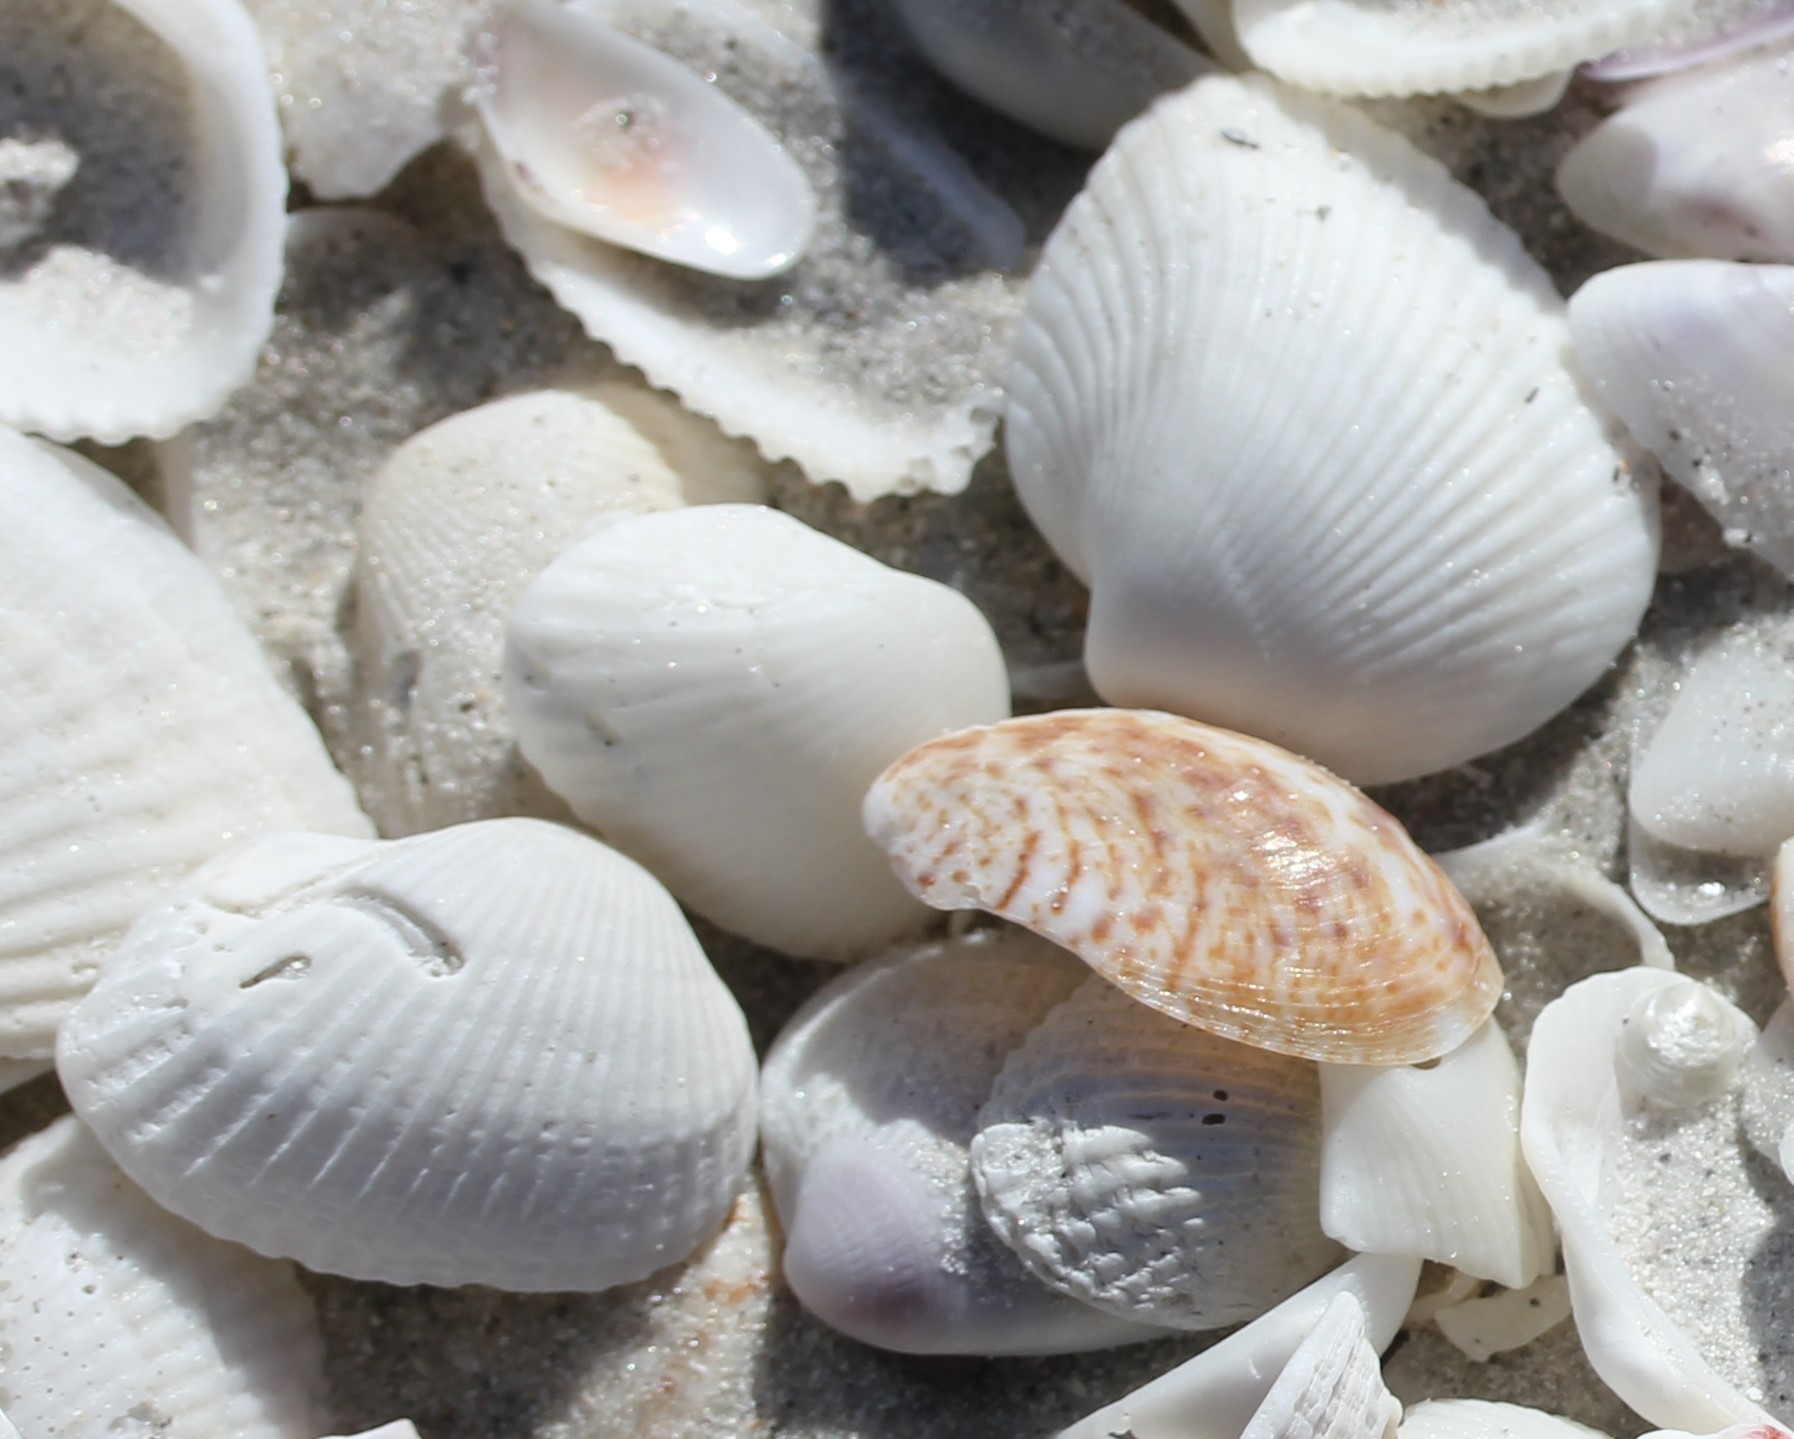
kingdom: Animalia
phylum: Mollusca
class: Bivalvia
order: Arcida
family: Arcidae
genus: Anadara
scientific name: Anadara transversa
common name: Transverse ark
